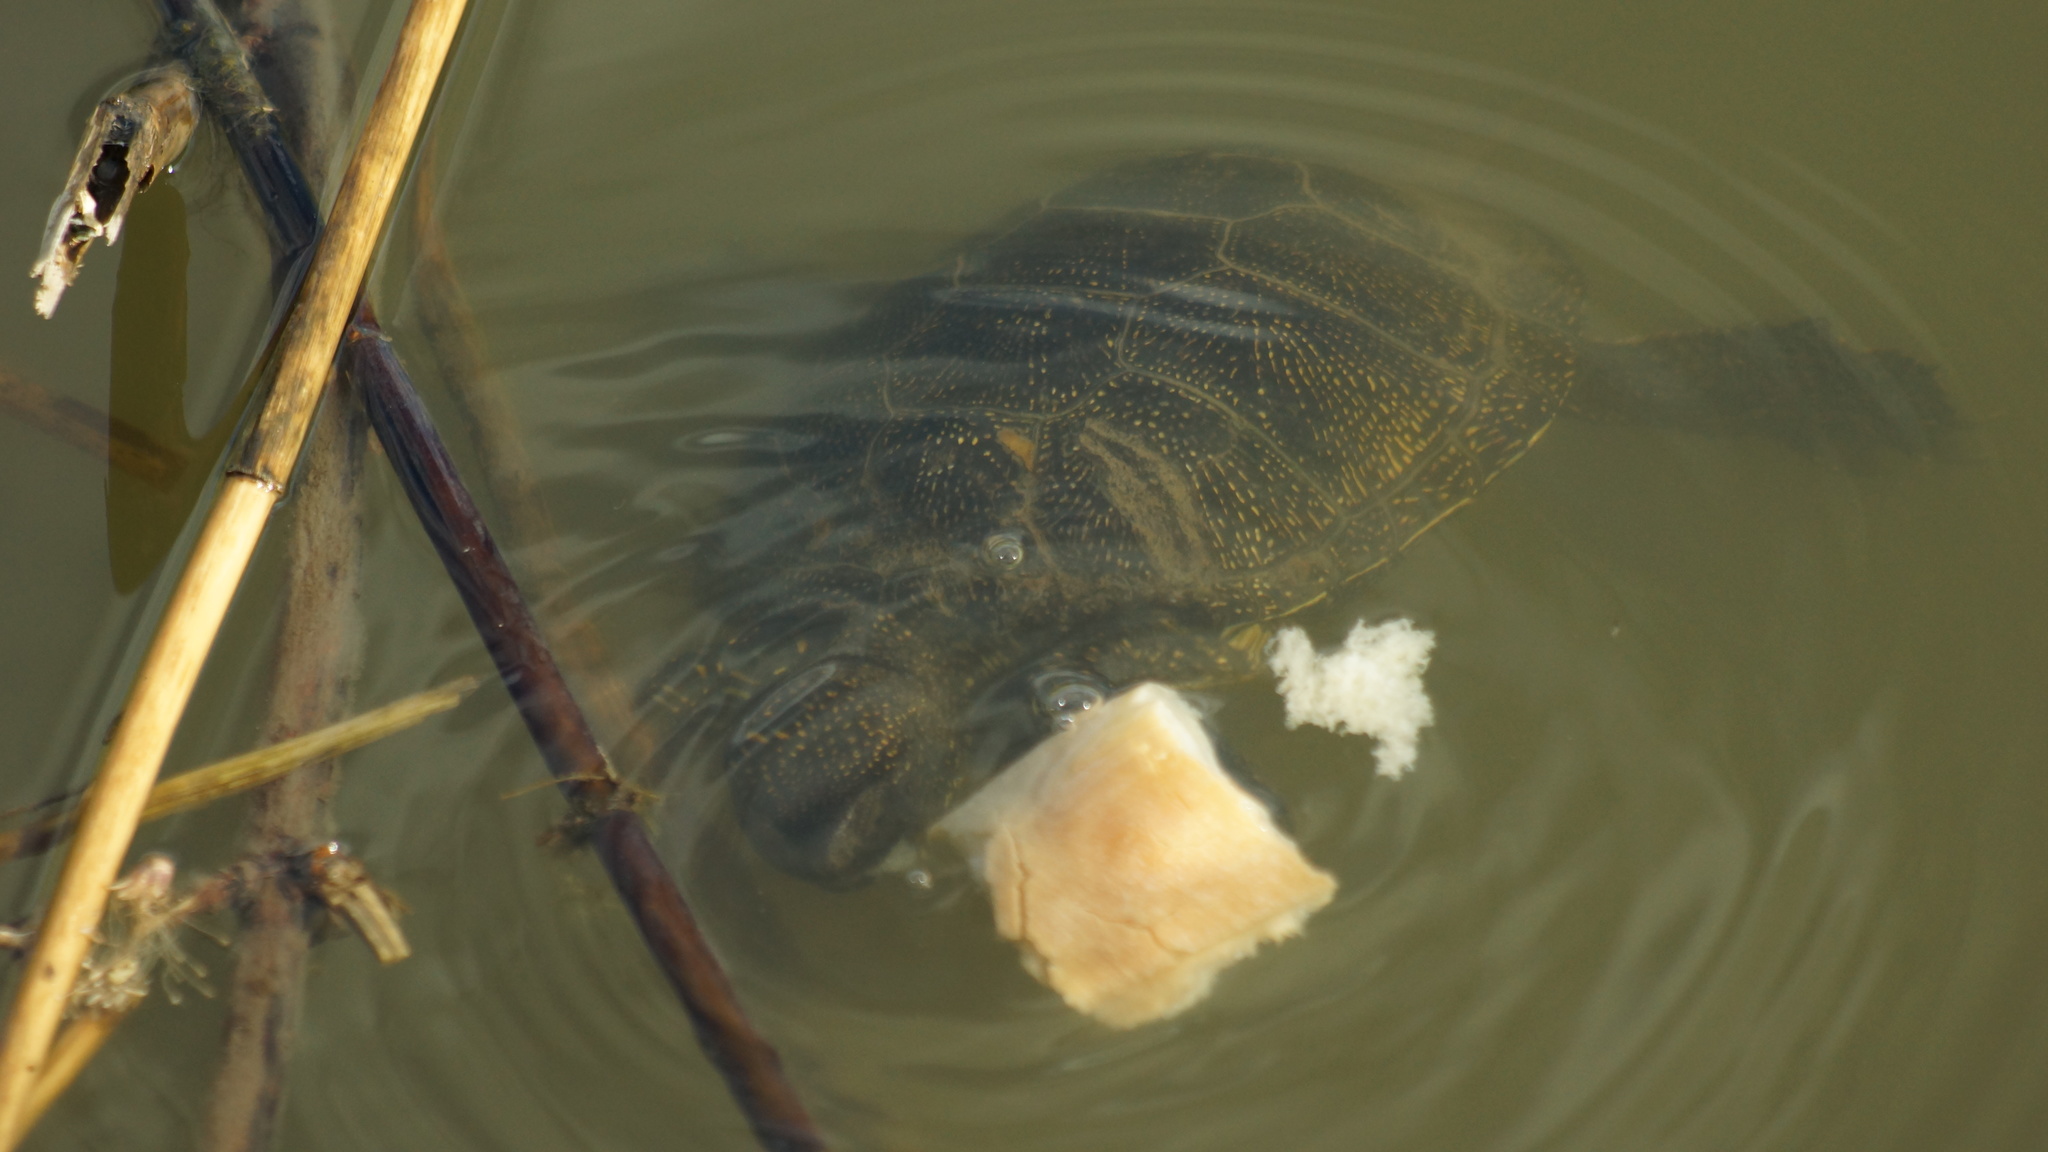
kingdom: Animalia
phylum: Chordata
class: Testudines
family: Emydidae
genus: Emys
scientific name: Emys orbicularis
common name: European pond turtle
